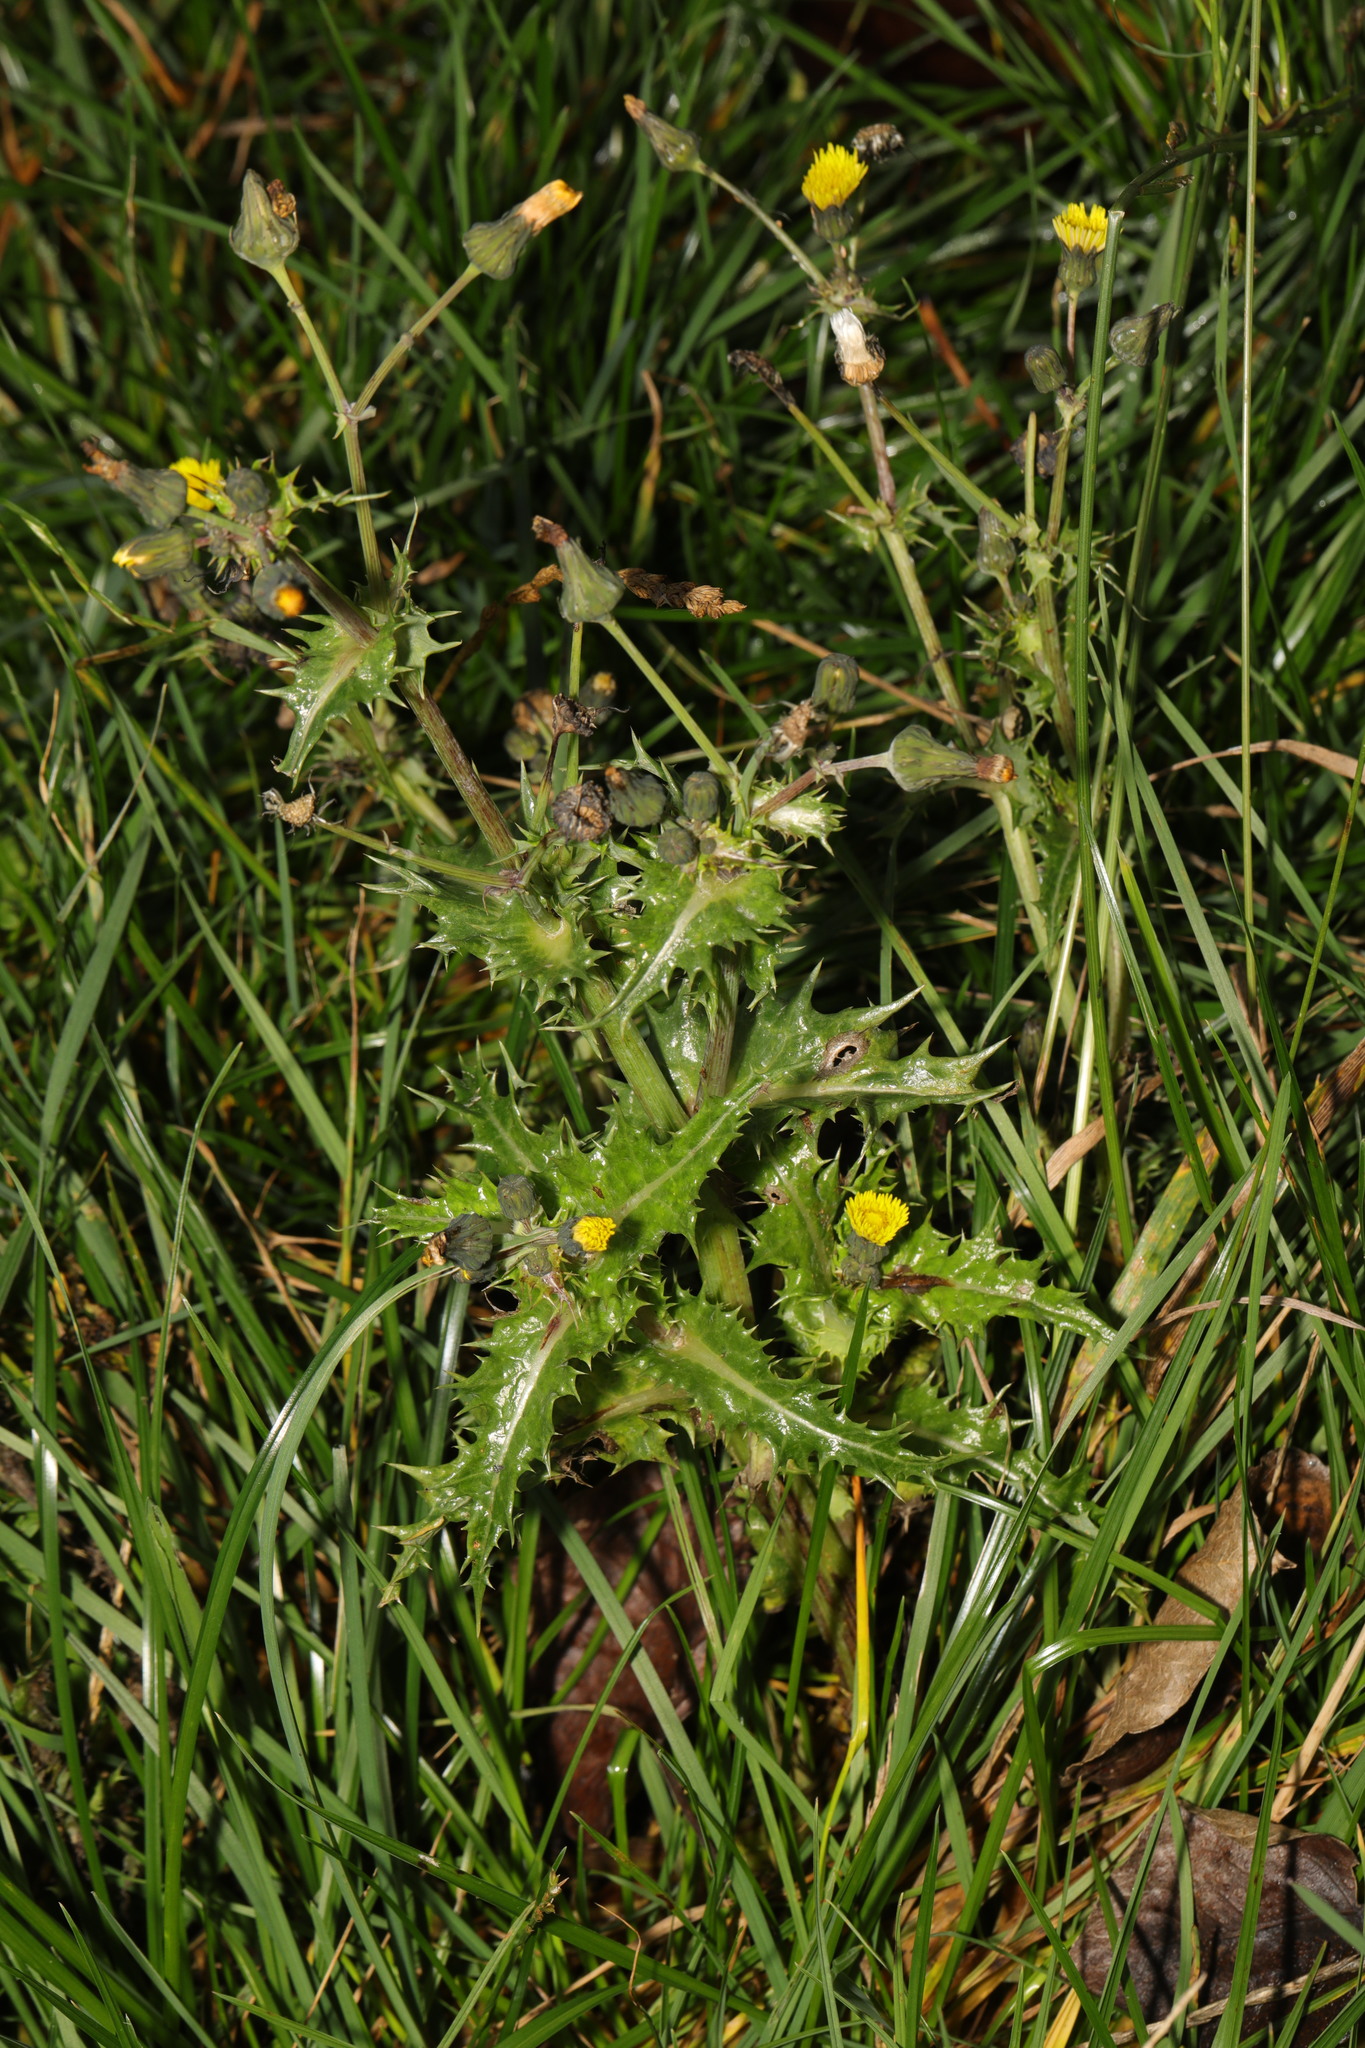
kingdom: Plantae
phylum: Tracheophyta
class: Magnoliopsida
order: Asterales
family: Asteraceae
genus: Sonchus
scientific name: Sonchus asper
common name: Prickly sow-thistle
